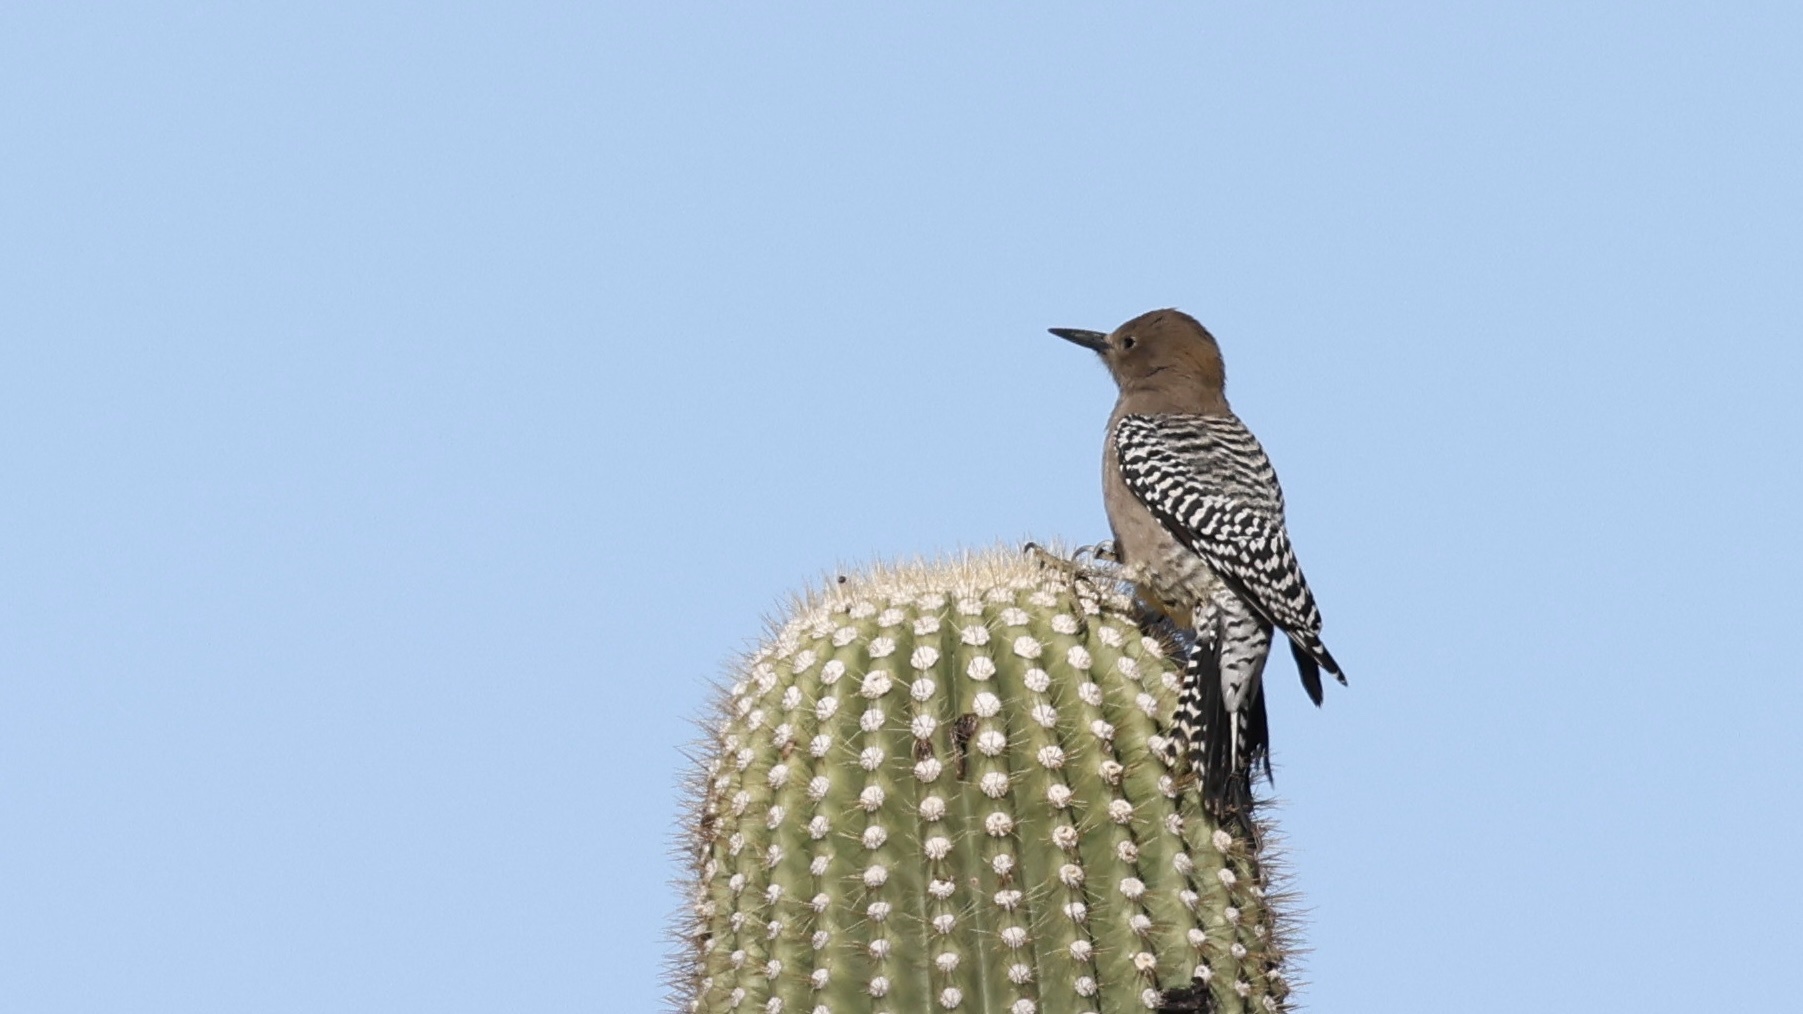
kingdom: Animalia
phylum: Chordata
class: Aves
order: Piciformes
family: Picidae
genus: Melanerpes
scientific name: Melanerpes uropygialis
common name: Gila woodpecker
